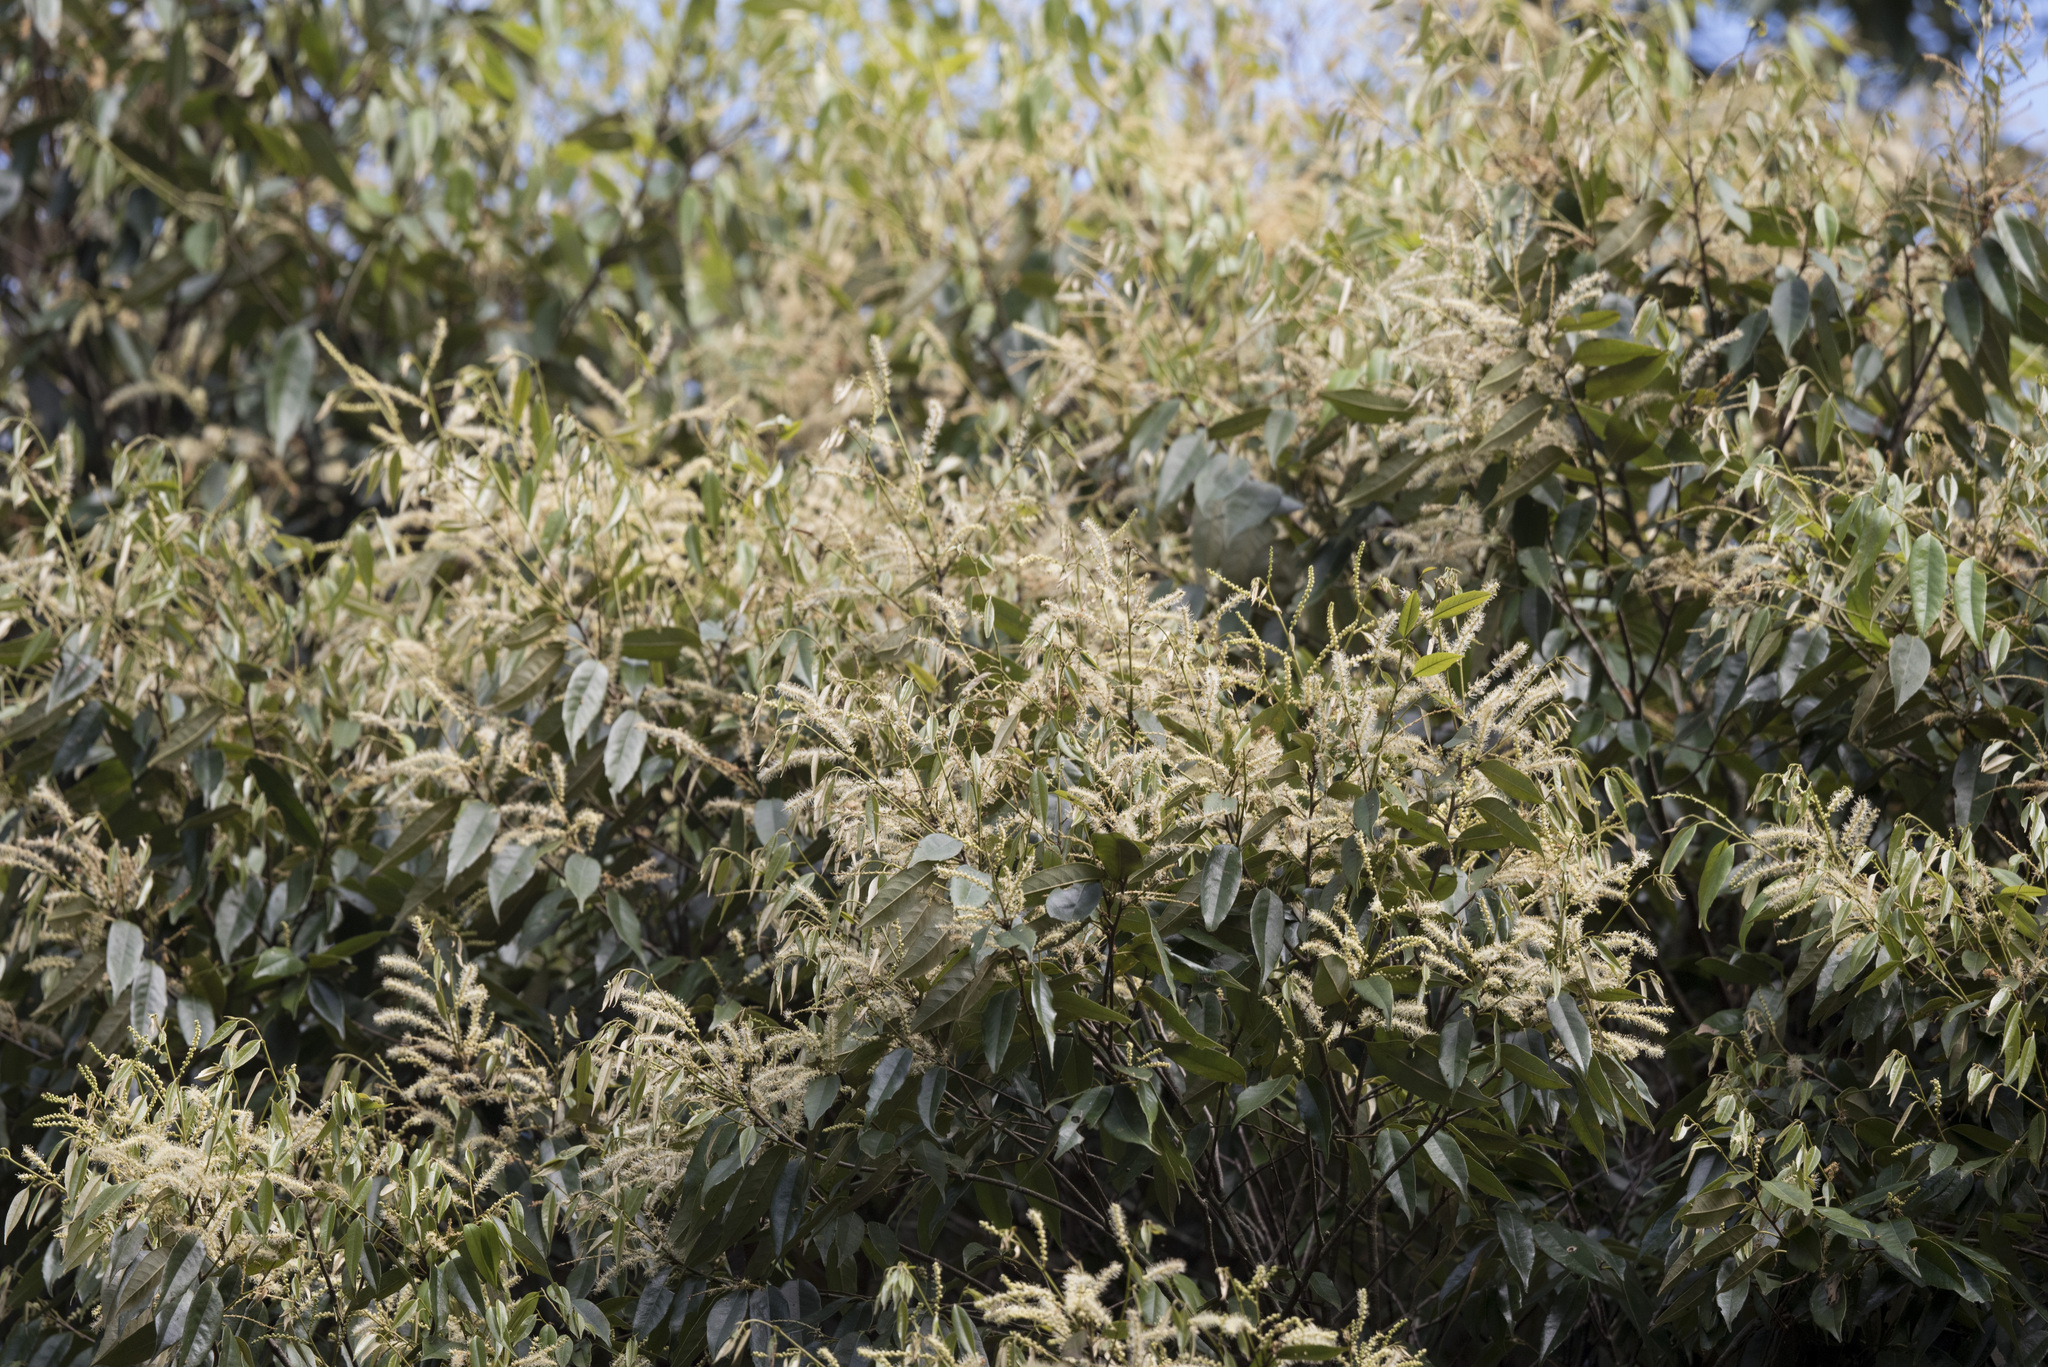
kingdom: Plantae
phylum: Tracheophyta
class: Magnoliopsida
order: Fagales
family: Fagaceae
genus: Castanopsis
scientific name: Castanopsis carlesii
